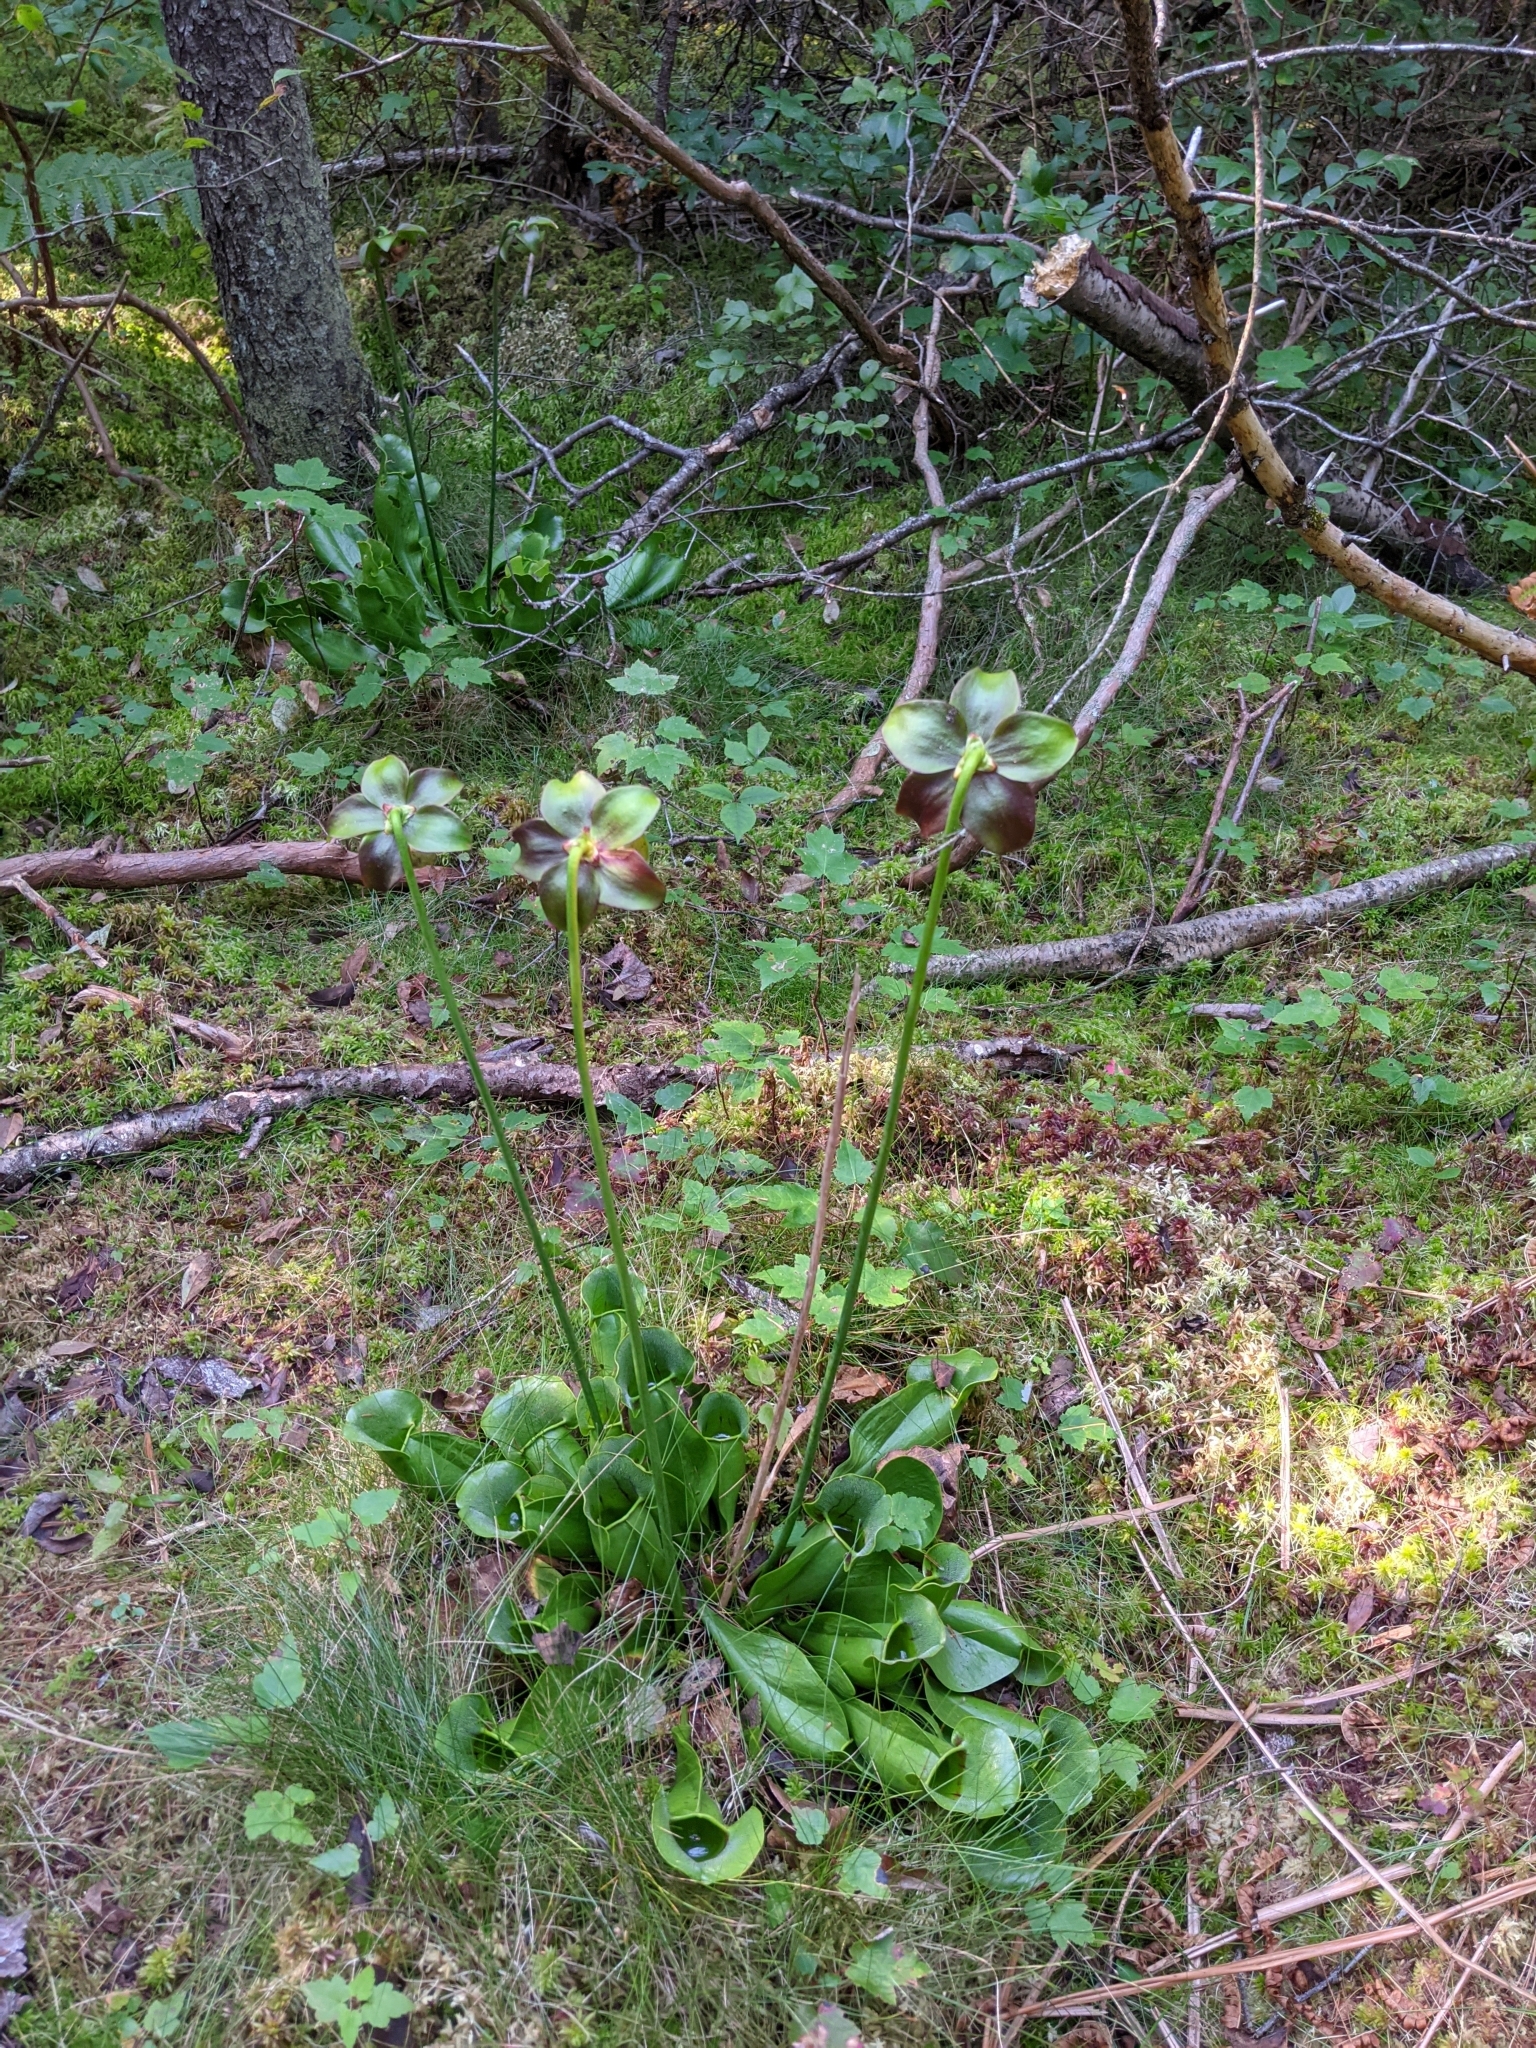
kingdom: Plantae
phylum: Tracheophyta
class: Magnoliopsida
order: Ericales
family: Sarraceniaceae
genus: Sarracenia
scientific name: Sarracenia purpurea
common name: Pitcherplant
